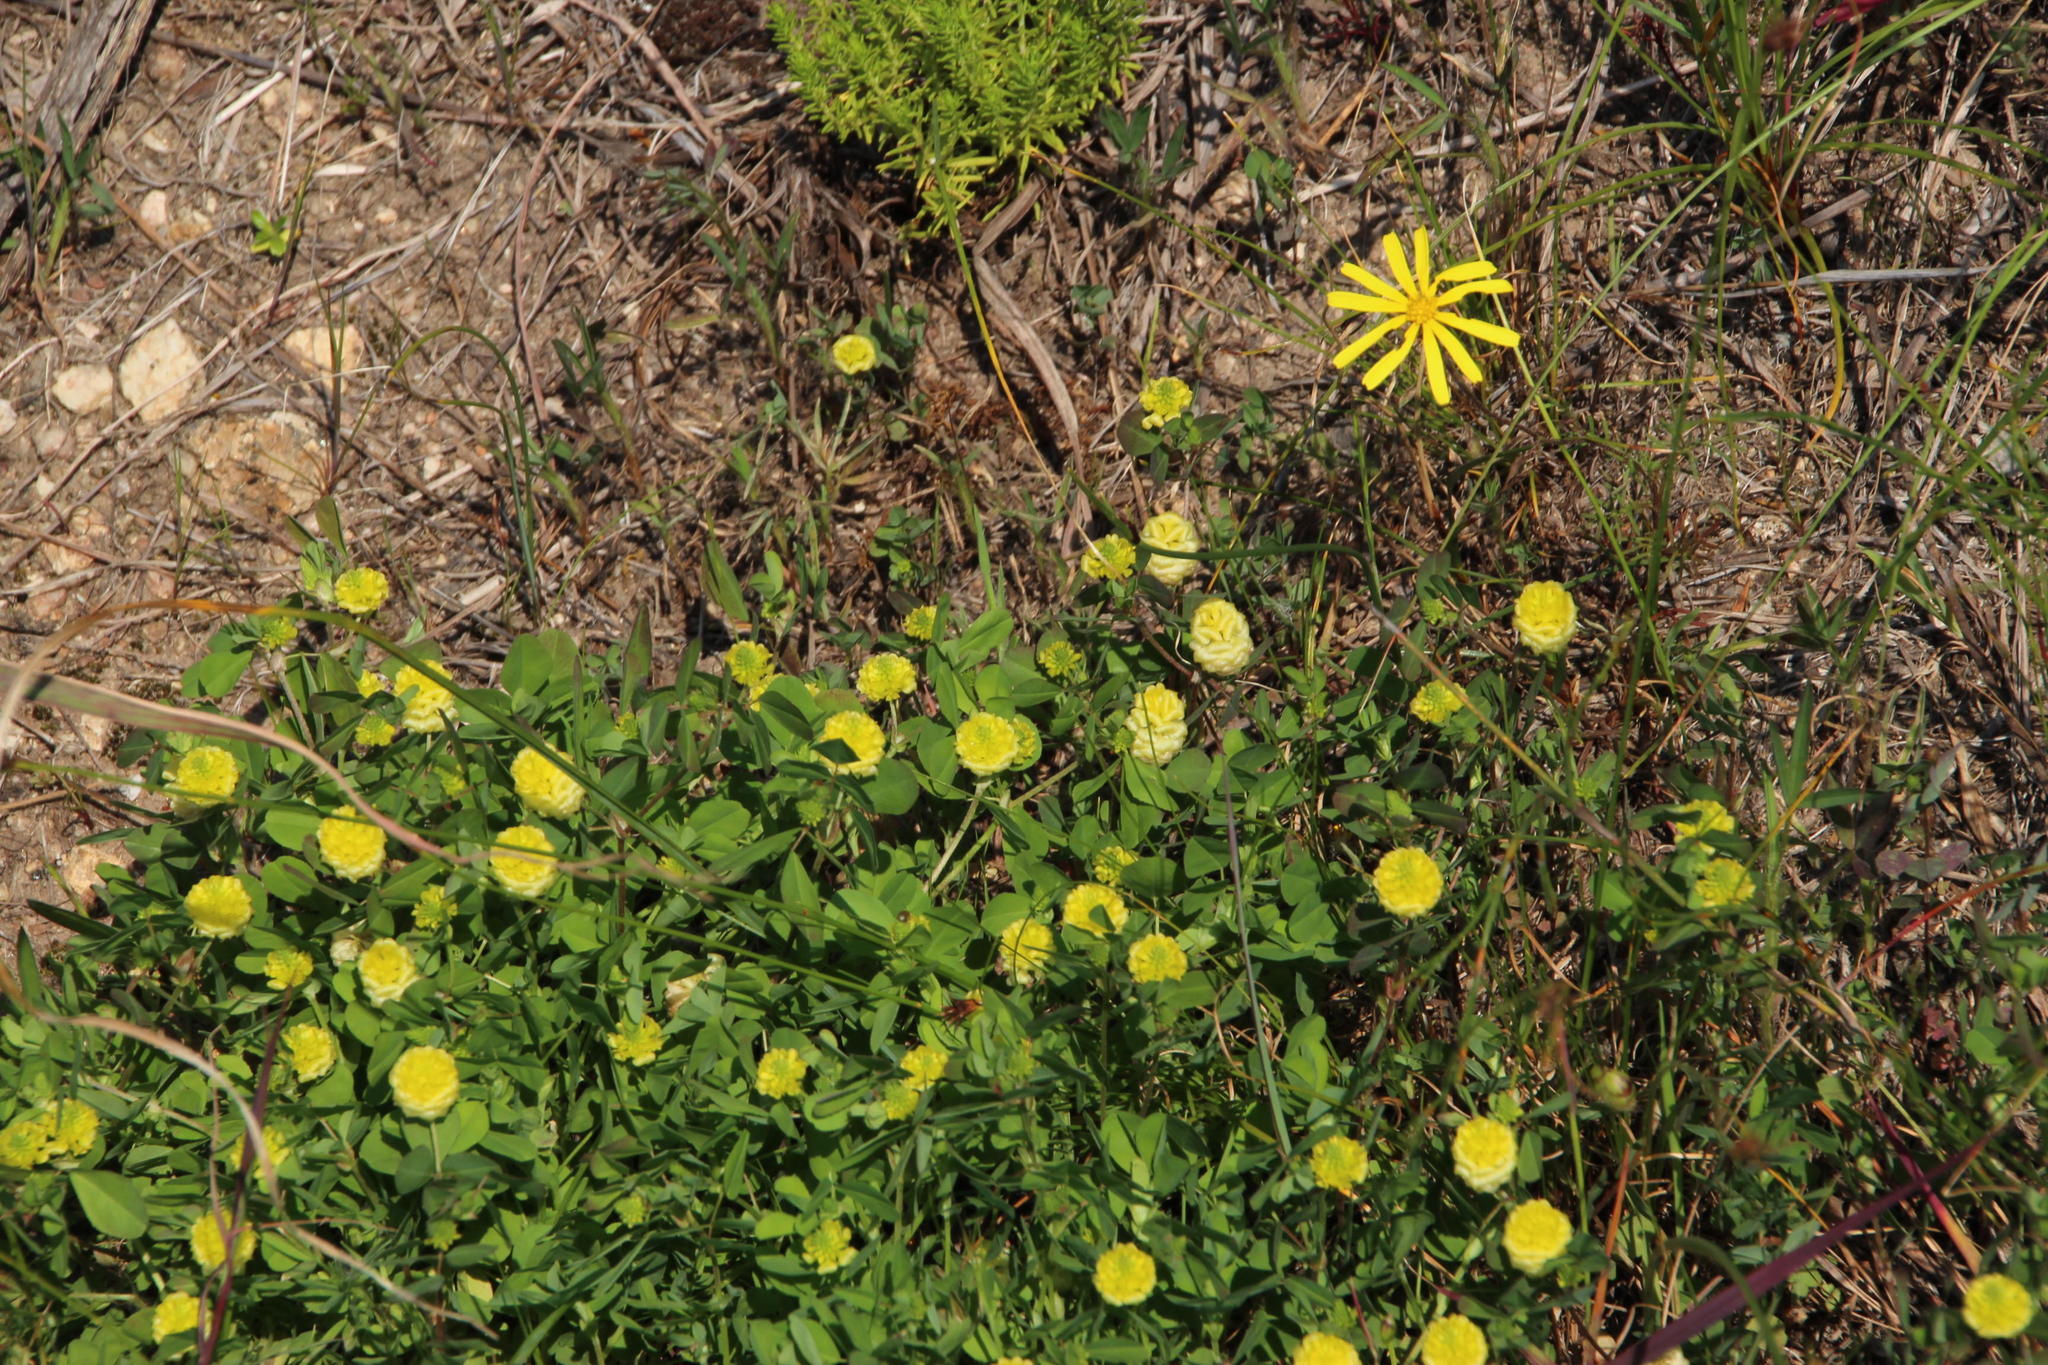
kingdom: Plantae
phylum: Tracheophyta
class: Magnoliopsida
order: Fabales
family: Fabaceae
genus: Trifolium
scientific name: Trifolium campestre
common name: Field clover
